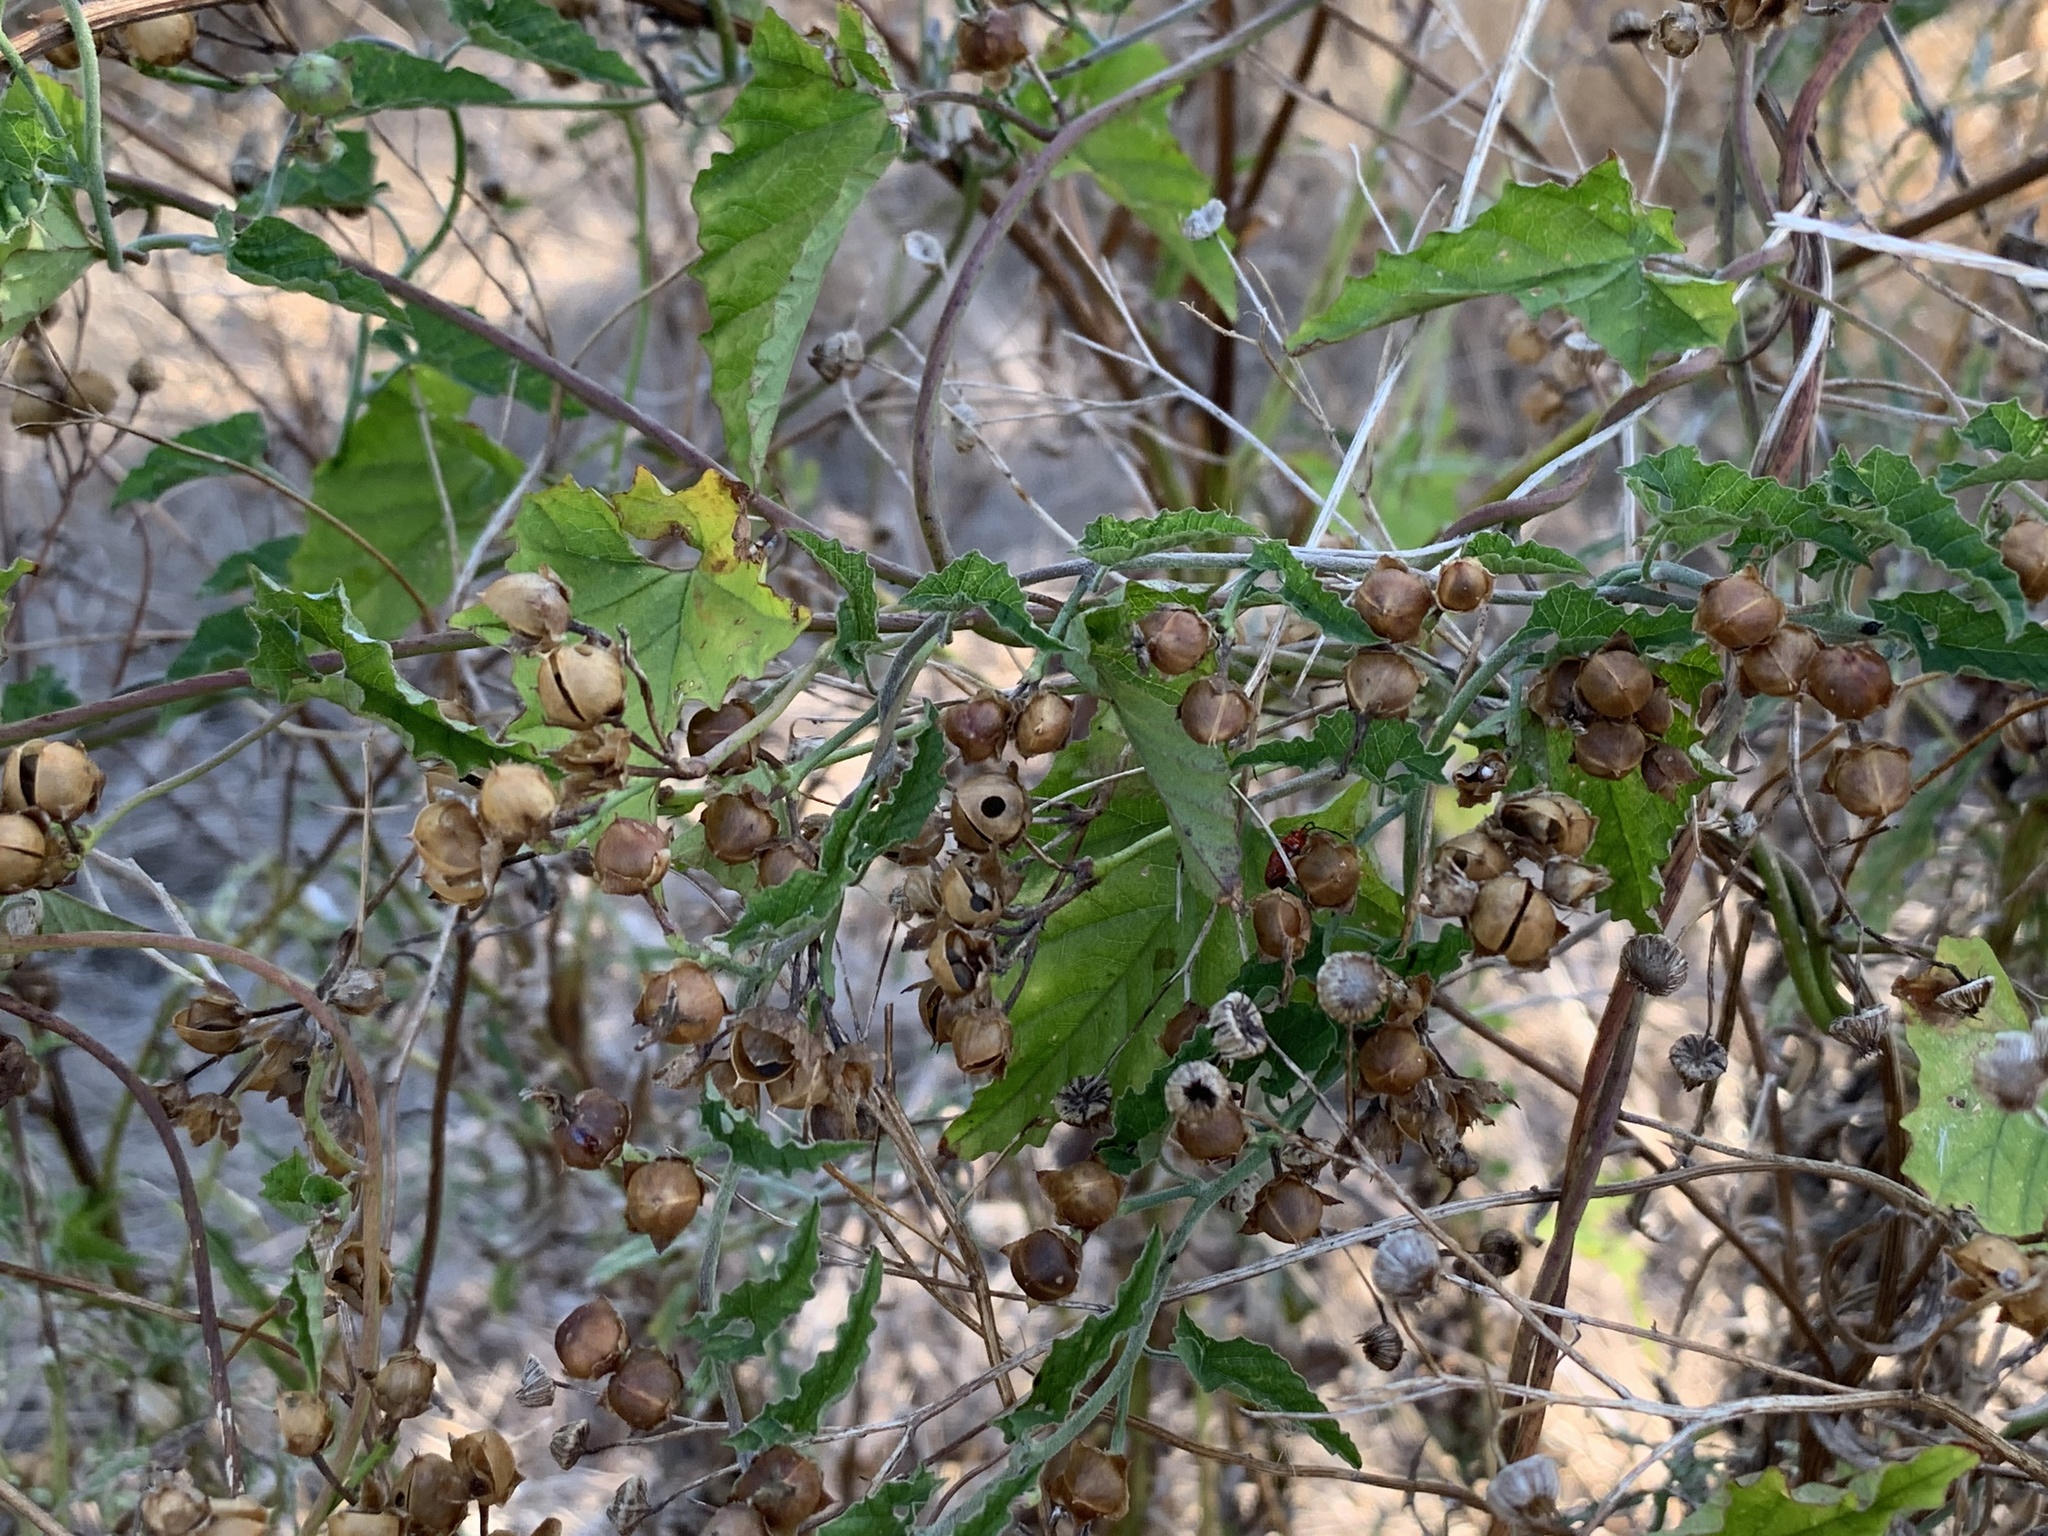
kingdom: Plantae
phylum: Tracheophyta
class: Magnoliopsida
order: Solanales
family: Convolvulaceae
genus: Convolvulus
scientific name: Convolvulus farinosus
